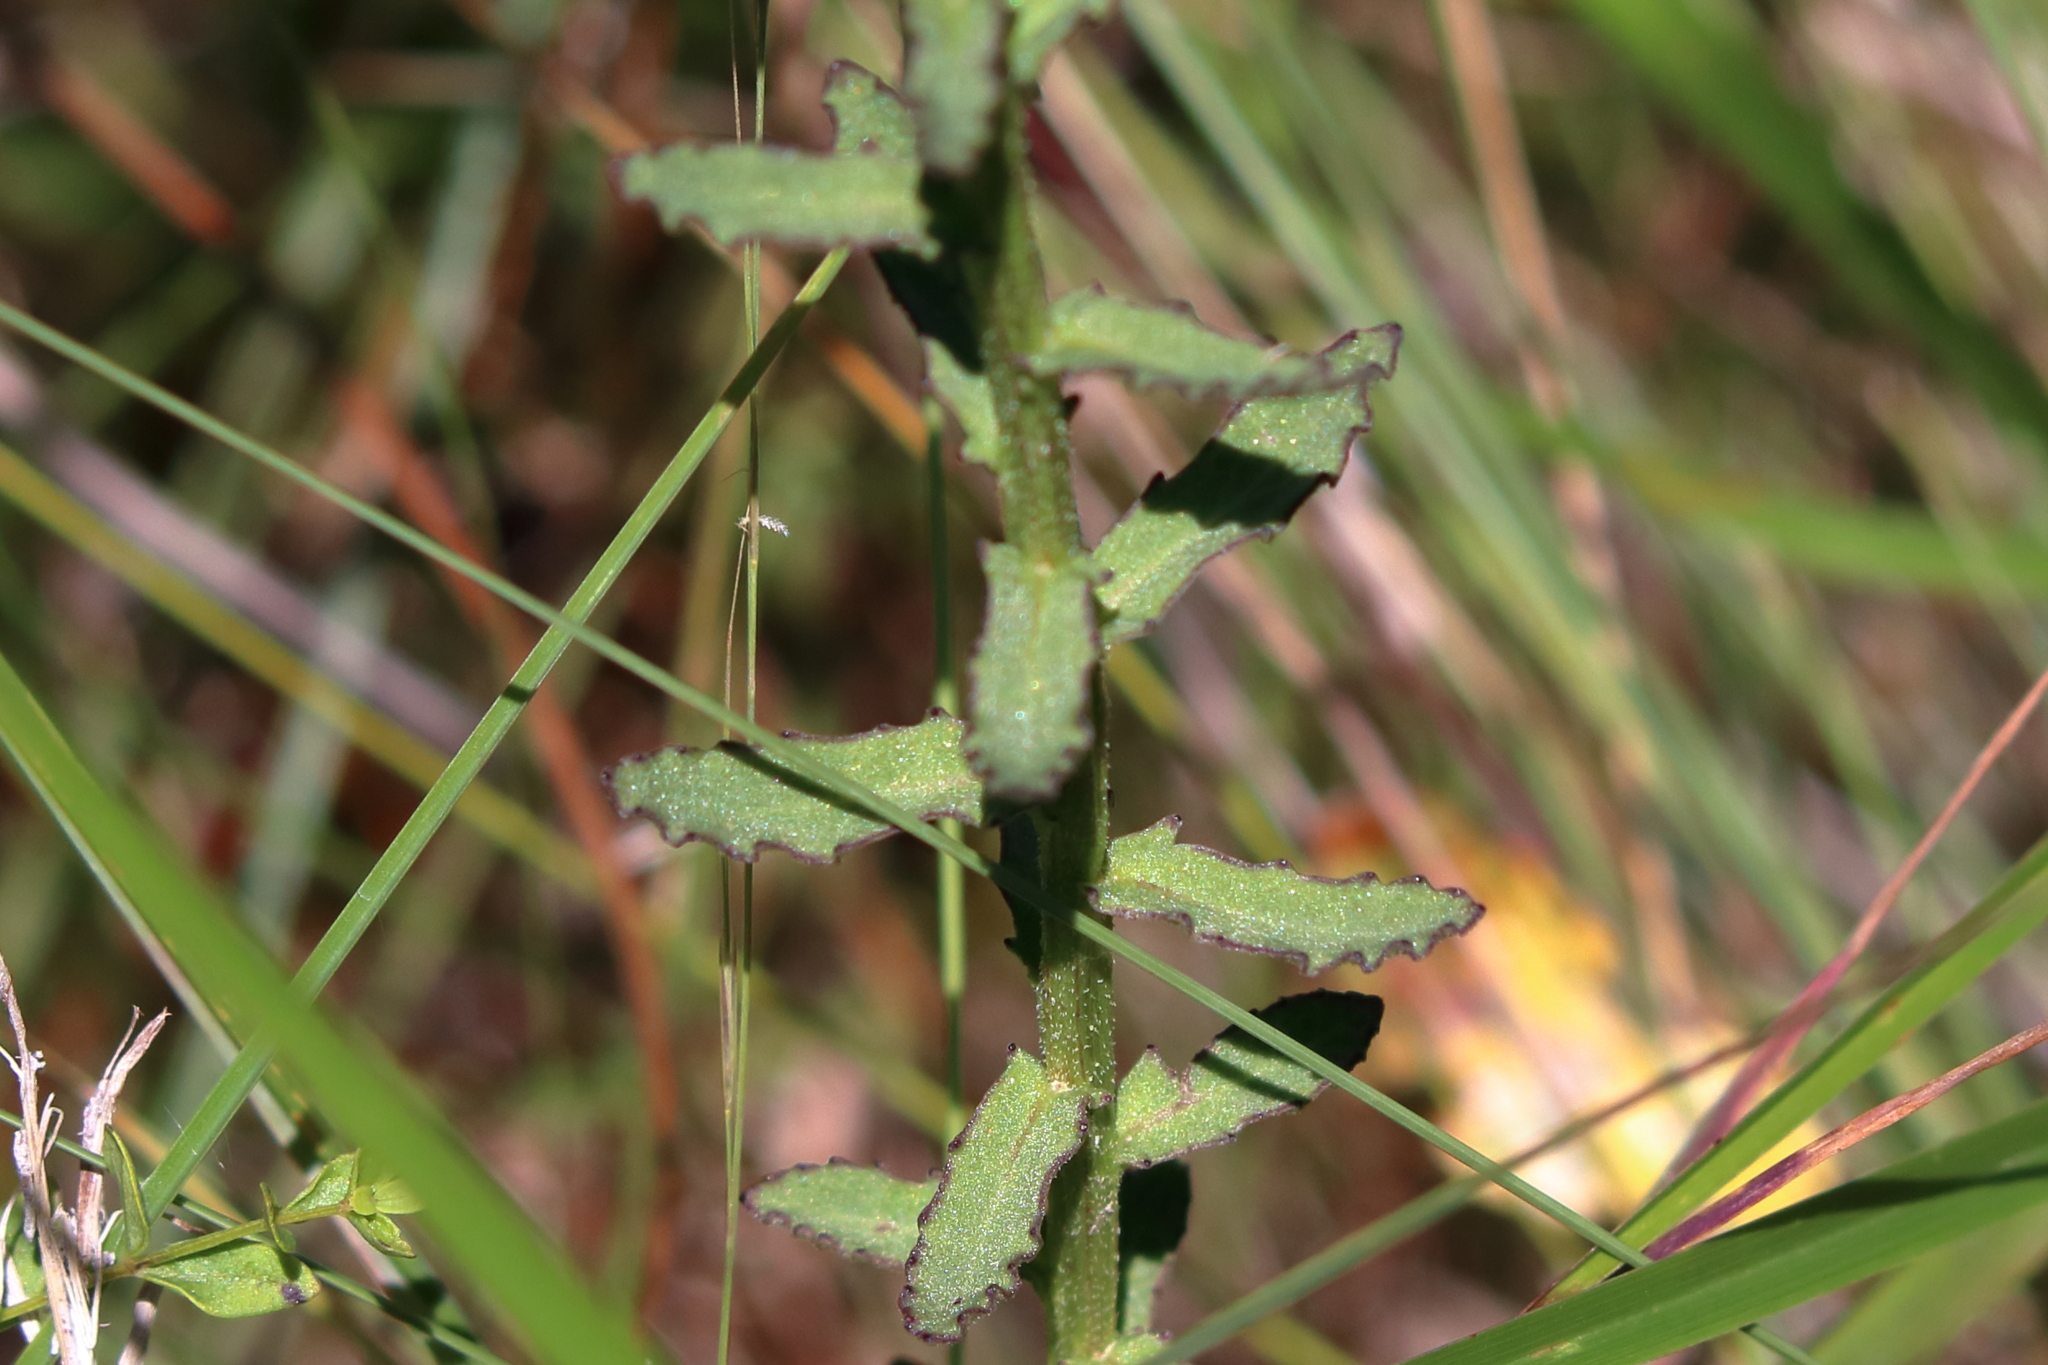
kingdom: Plantae
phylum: Tracheophyta
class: Magnoliopsida
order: Asterales
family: Campanulaceae
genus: Lobelia
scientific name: Lobelia brevifolia
